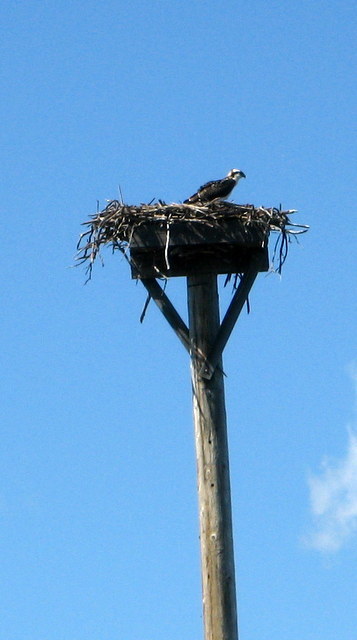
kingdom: Animalia
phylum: Chordata
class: Aves
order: Accipitriformes
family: Pandionidae
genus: Pandion
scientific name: Pandion haliaetus
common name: Osprey
